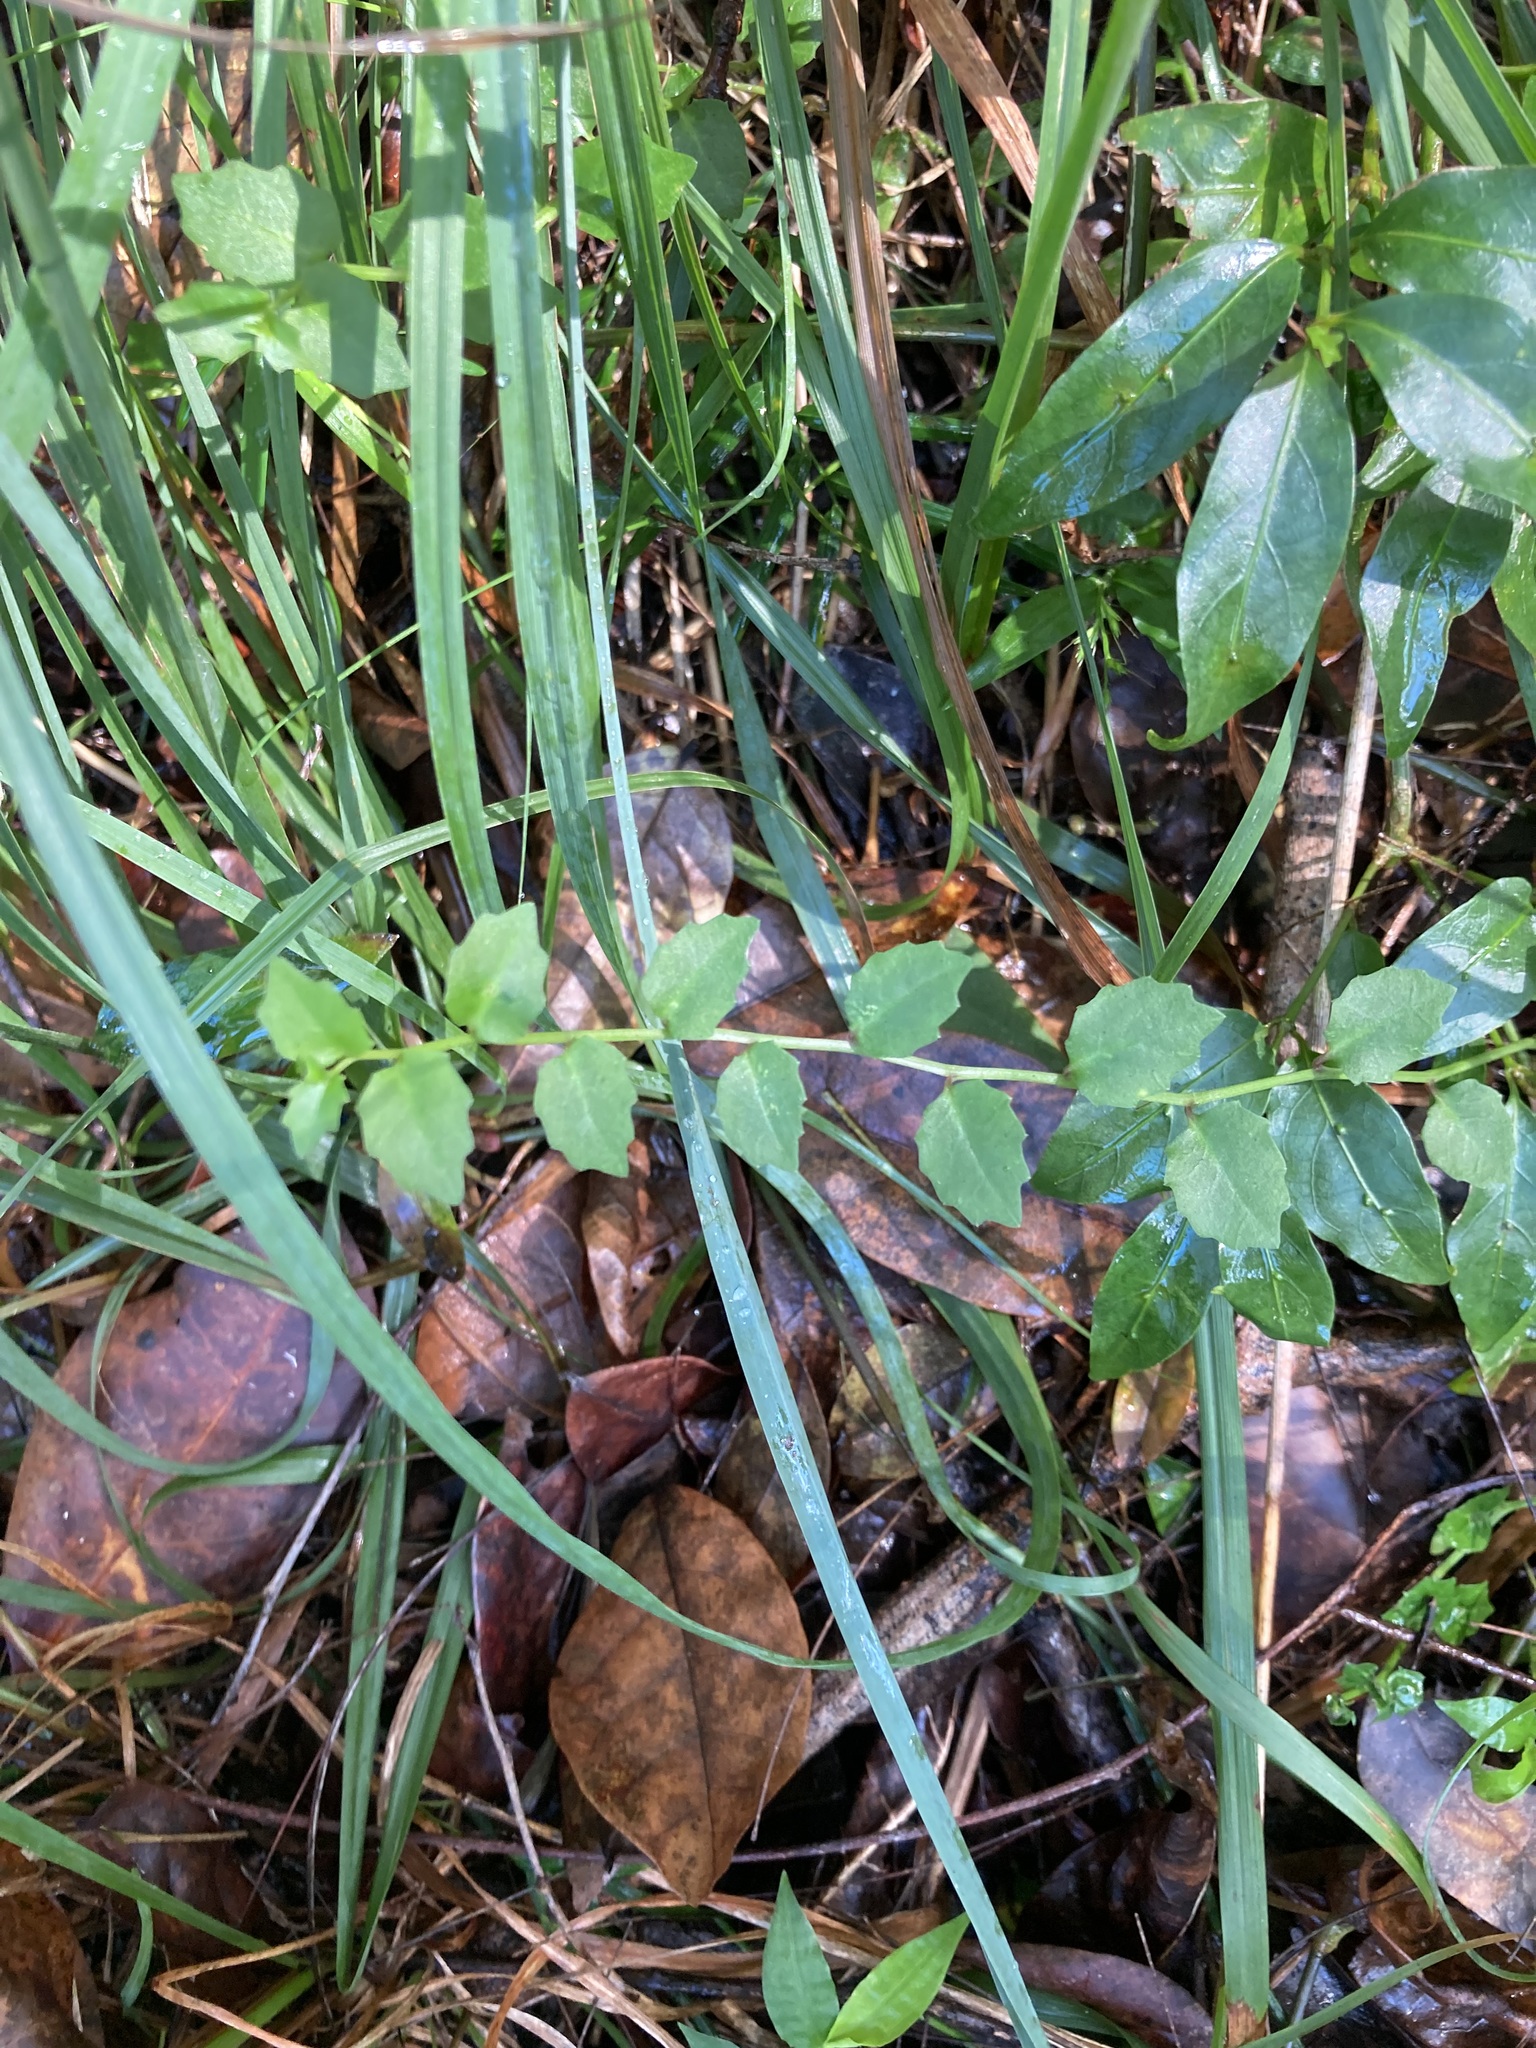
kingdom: Plantae
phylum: Tracheophyta
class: Magnoliopsida
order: Asterales
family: Campanulaceae
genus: Lobelia
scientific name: Lobelia purpurascens
